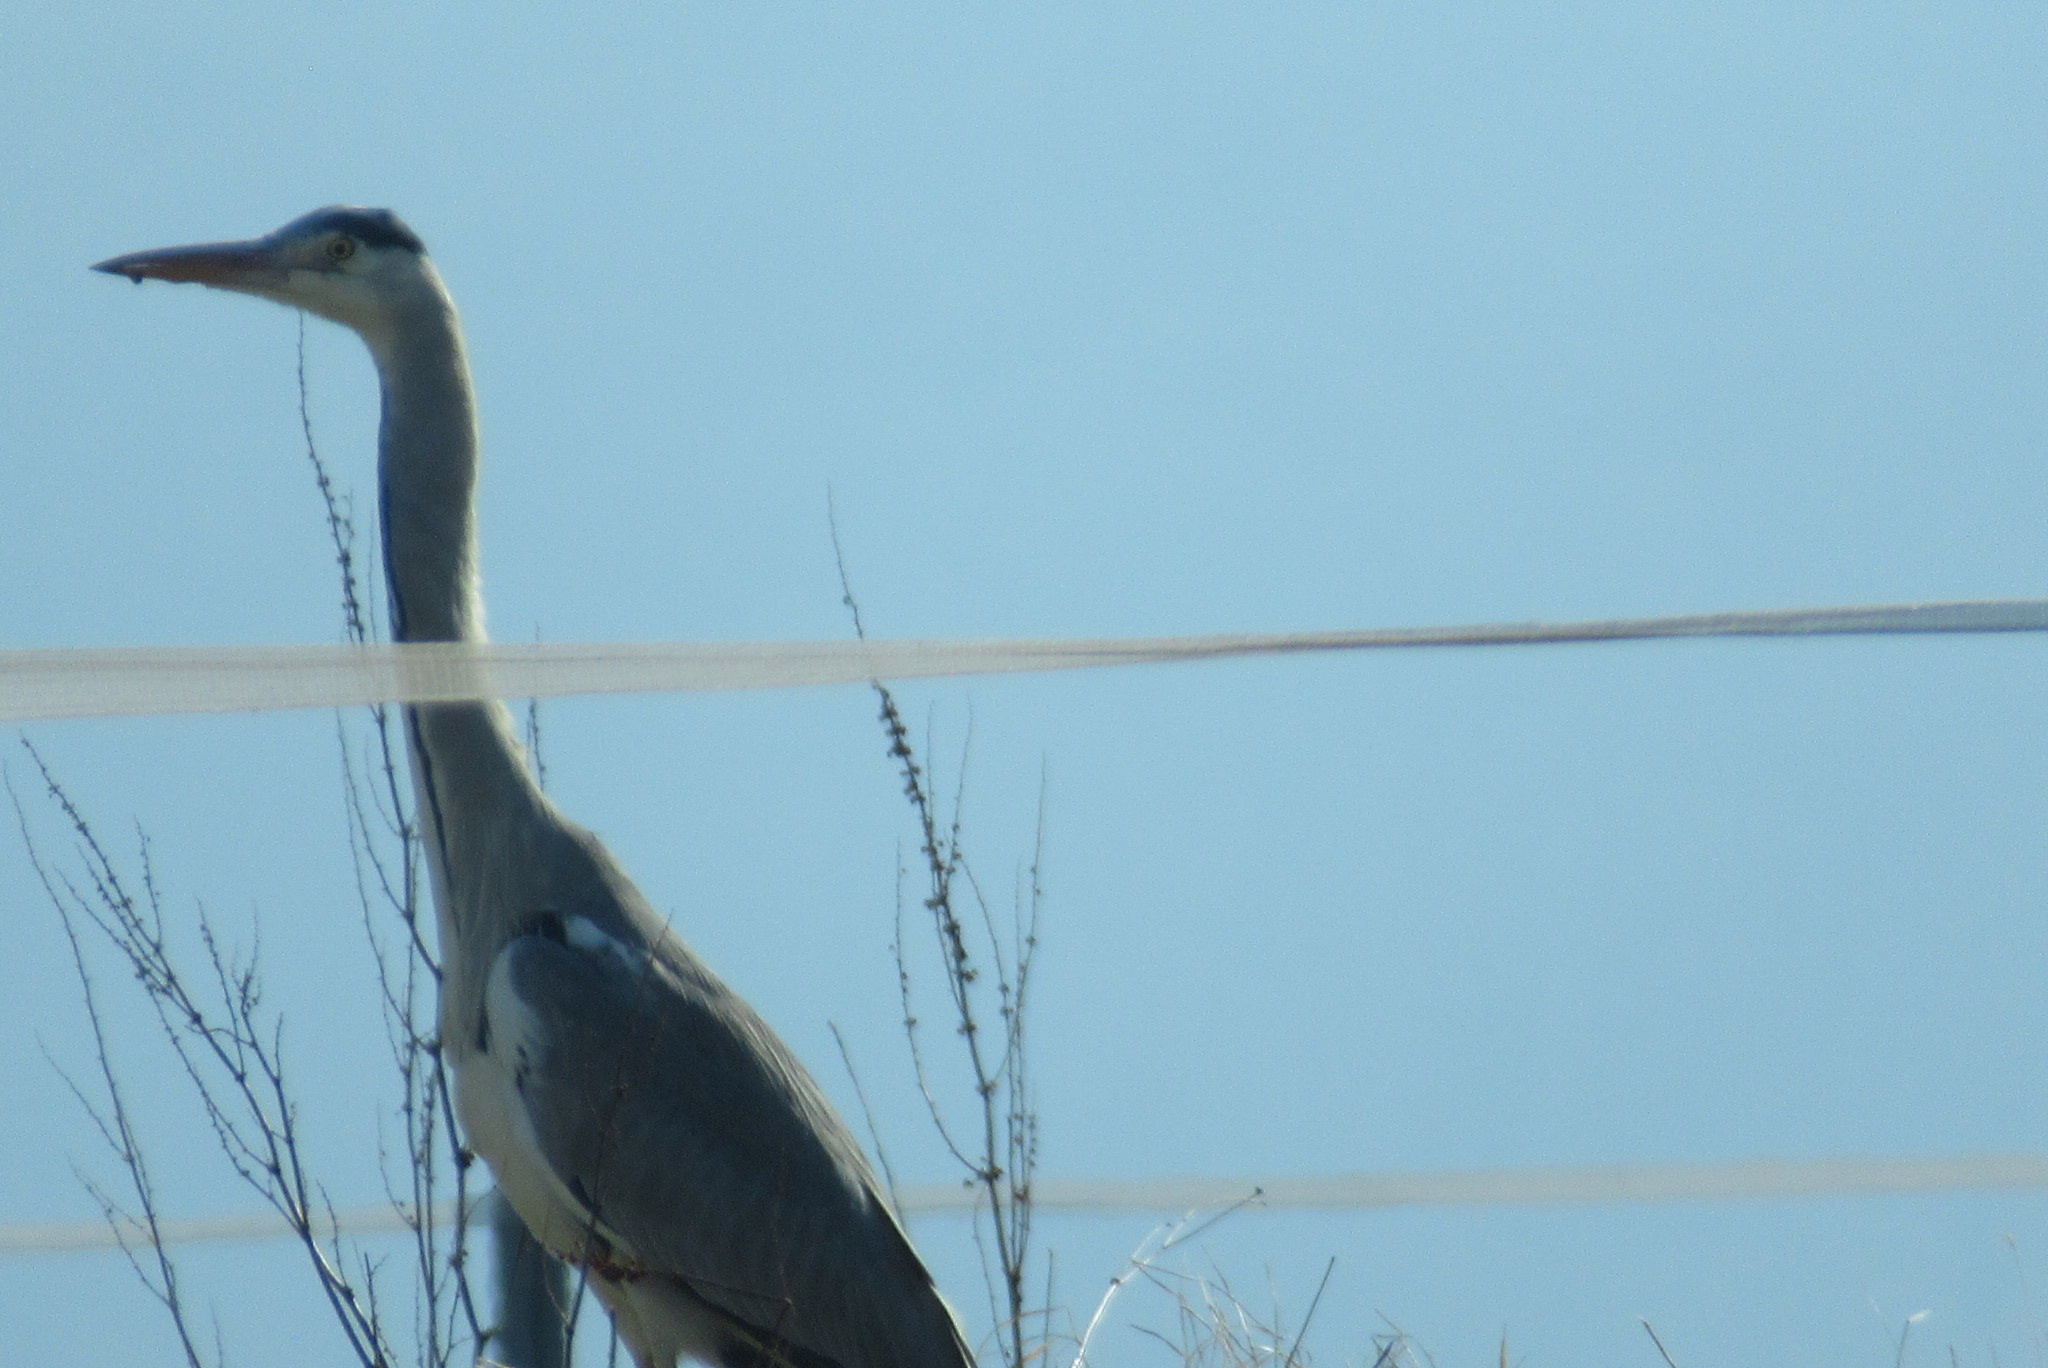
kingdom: Animalia
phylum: Chordata
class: Aves
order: Pelecaniformes
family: Ardeidae
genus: Ardea
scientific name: Ardea cinerea
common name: Grey heron
